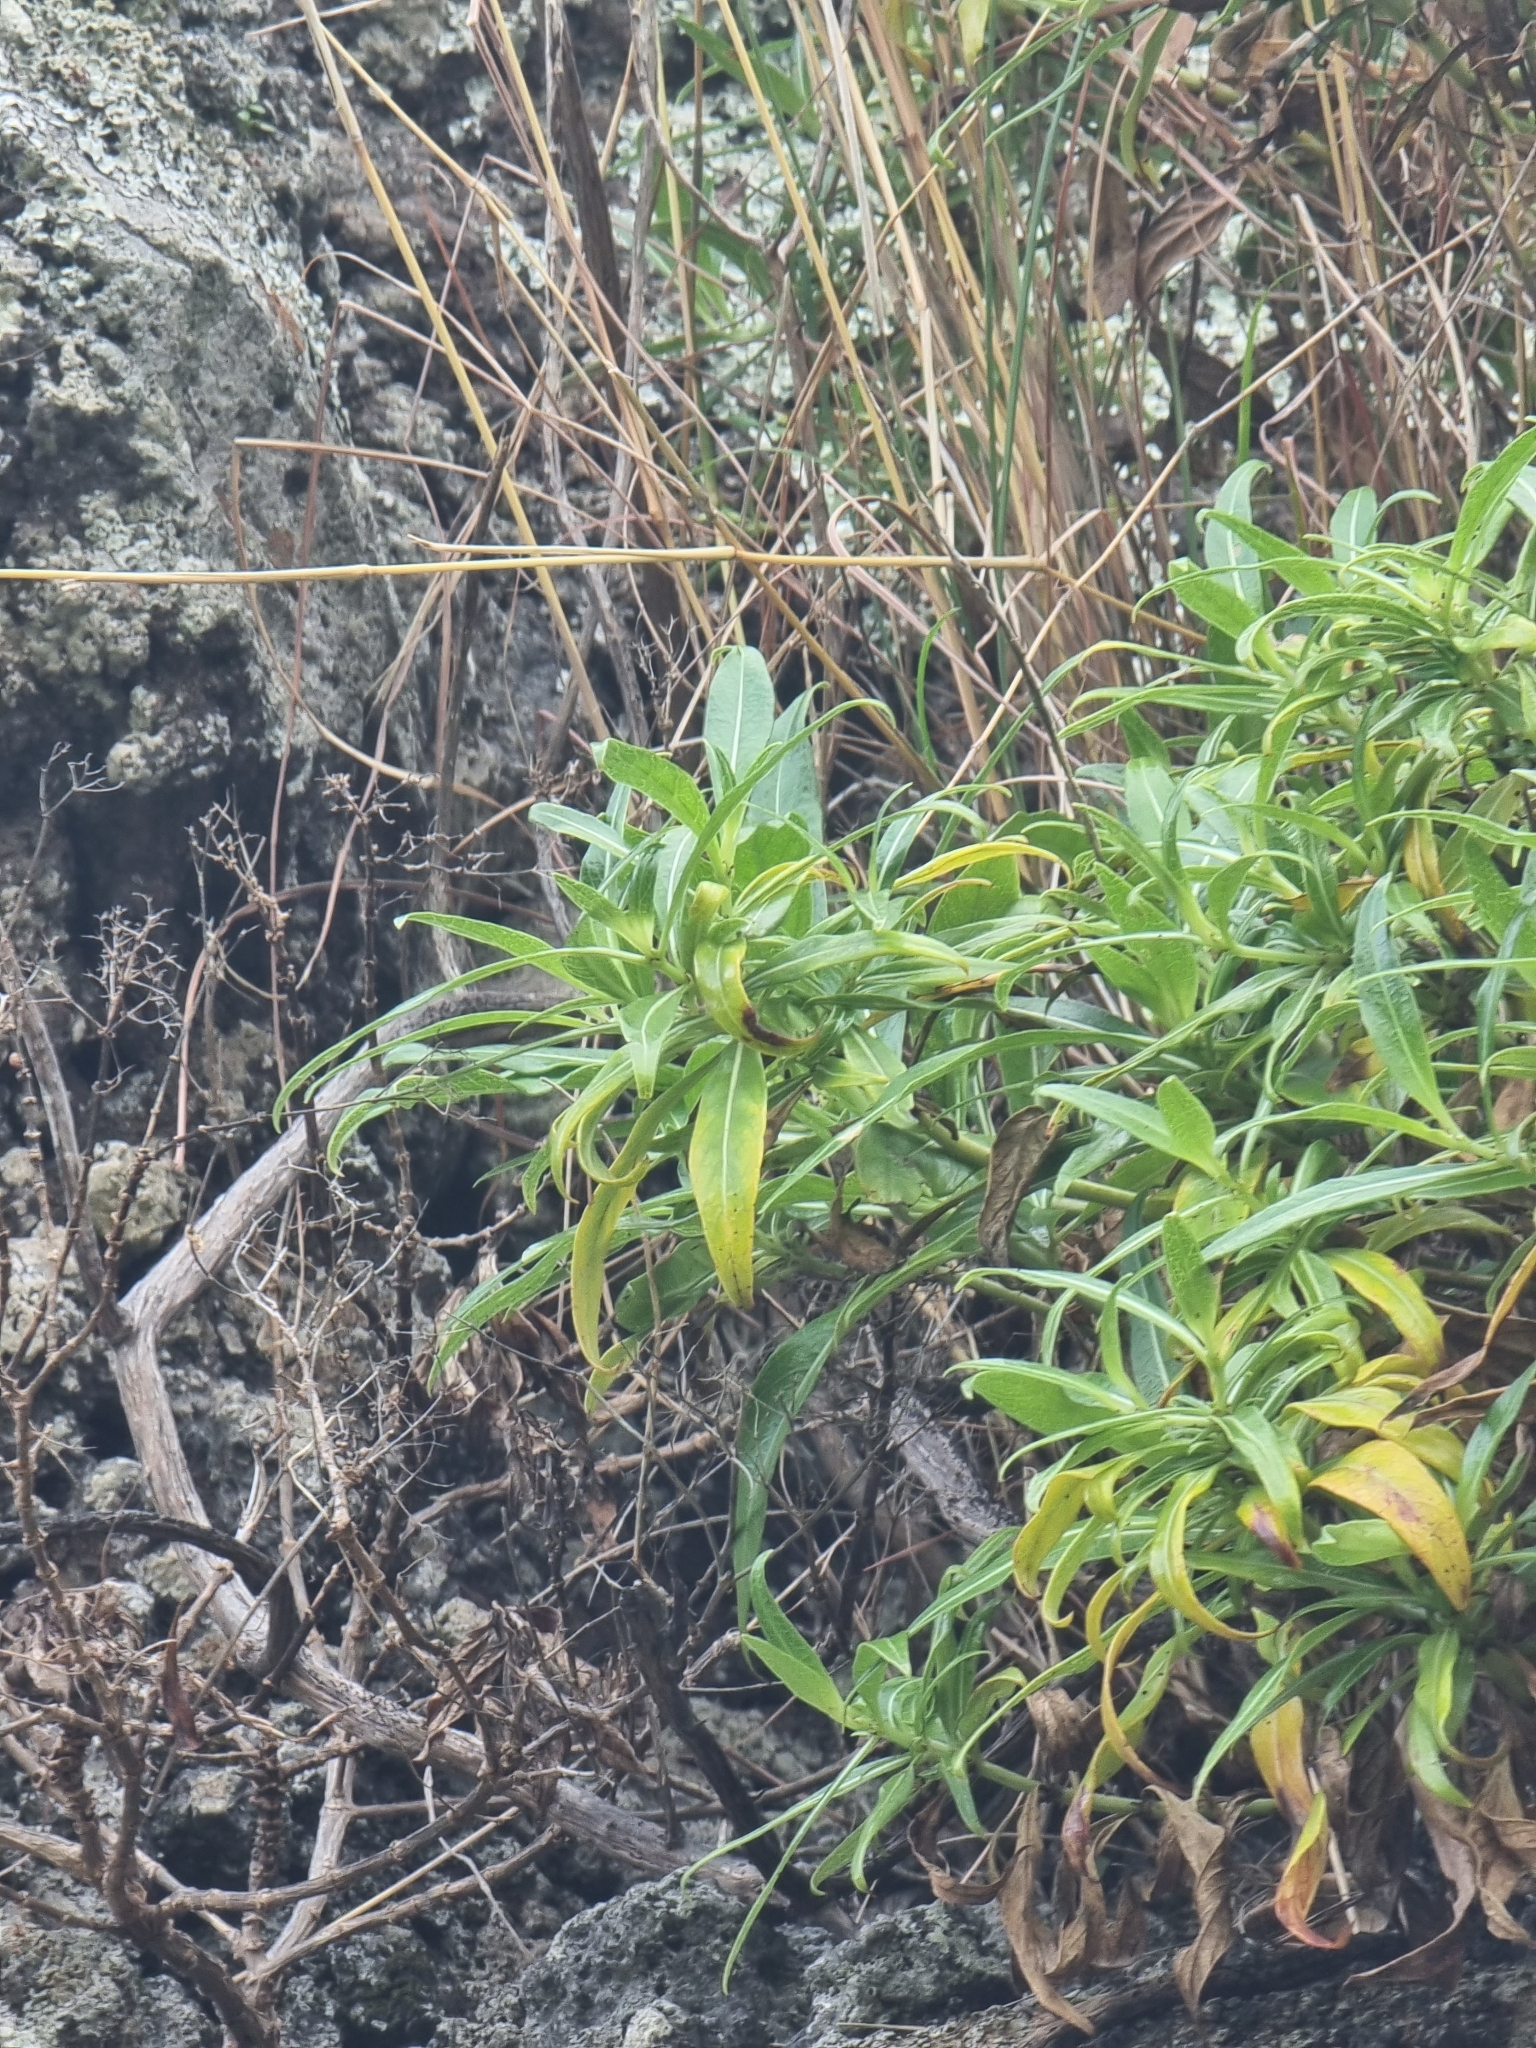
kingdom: Plantae
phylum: Tracheophyta
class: Magnoliopsida
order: Gentianales
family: Rubiaceae
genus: Phyllis
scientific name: Phyllis nobla
